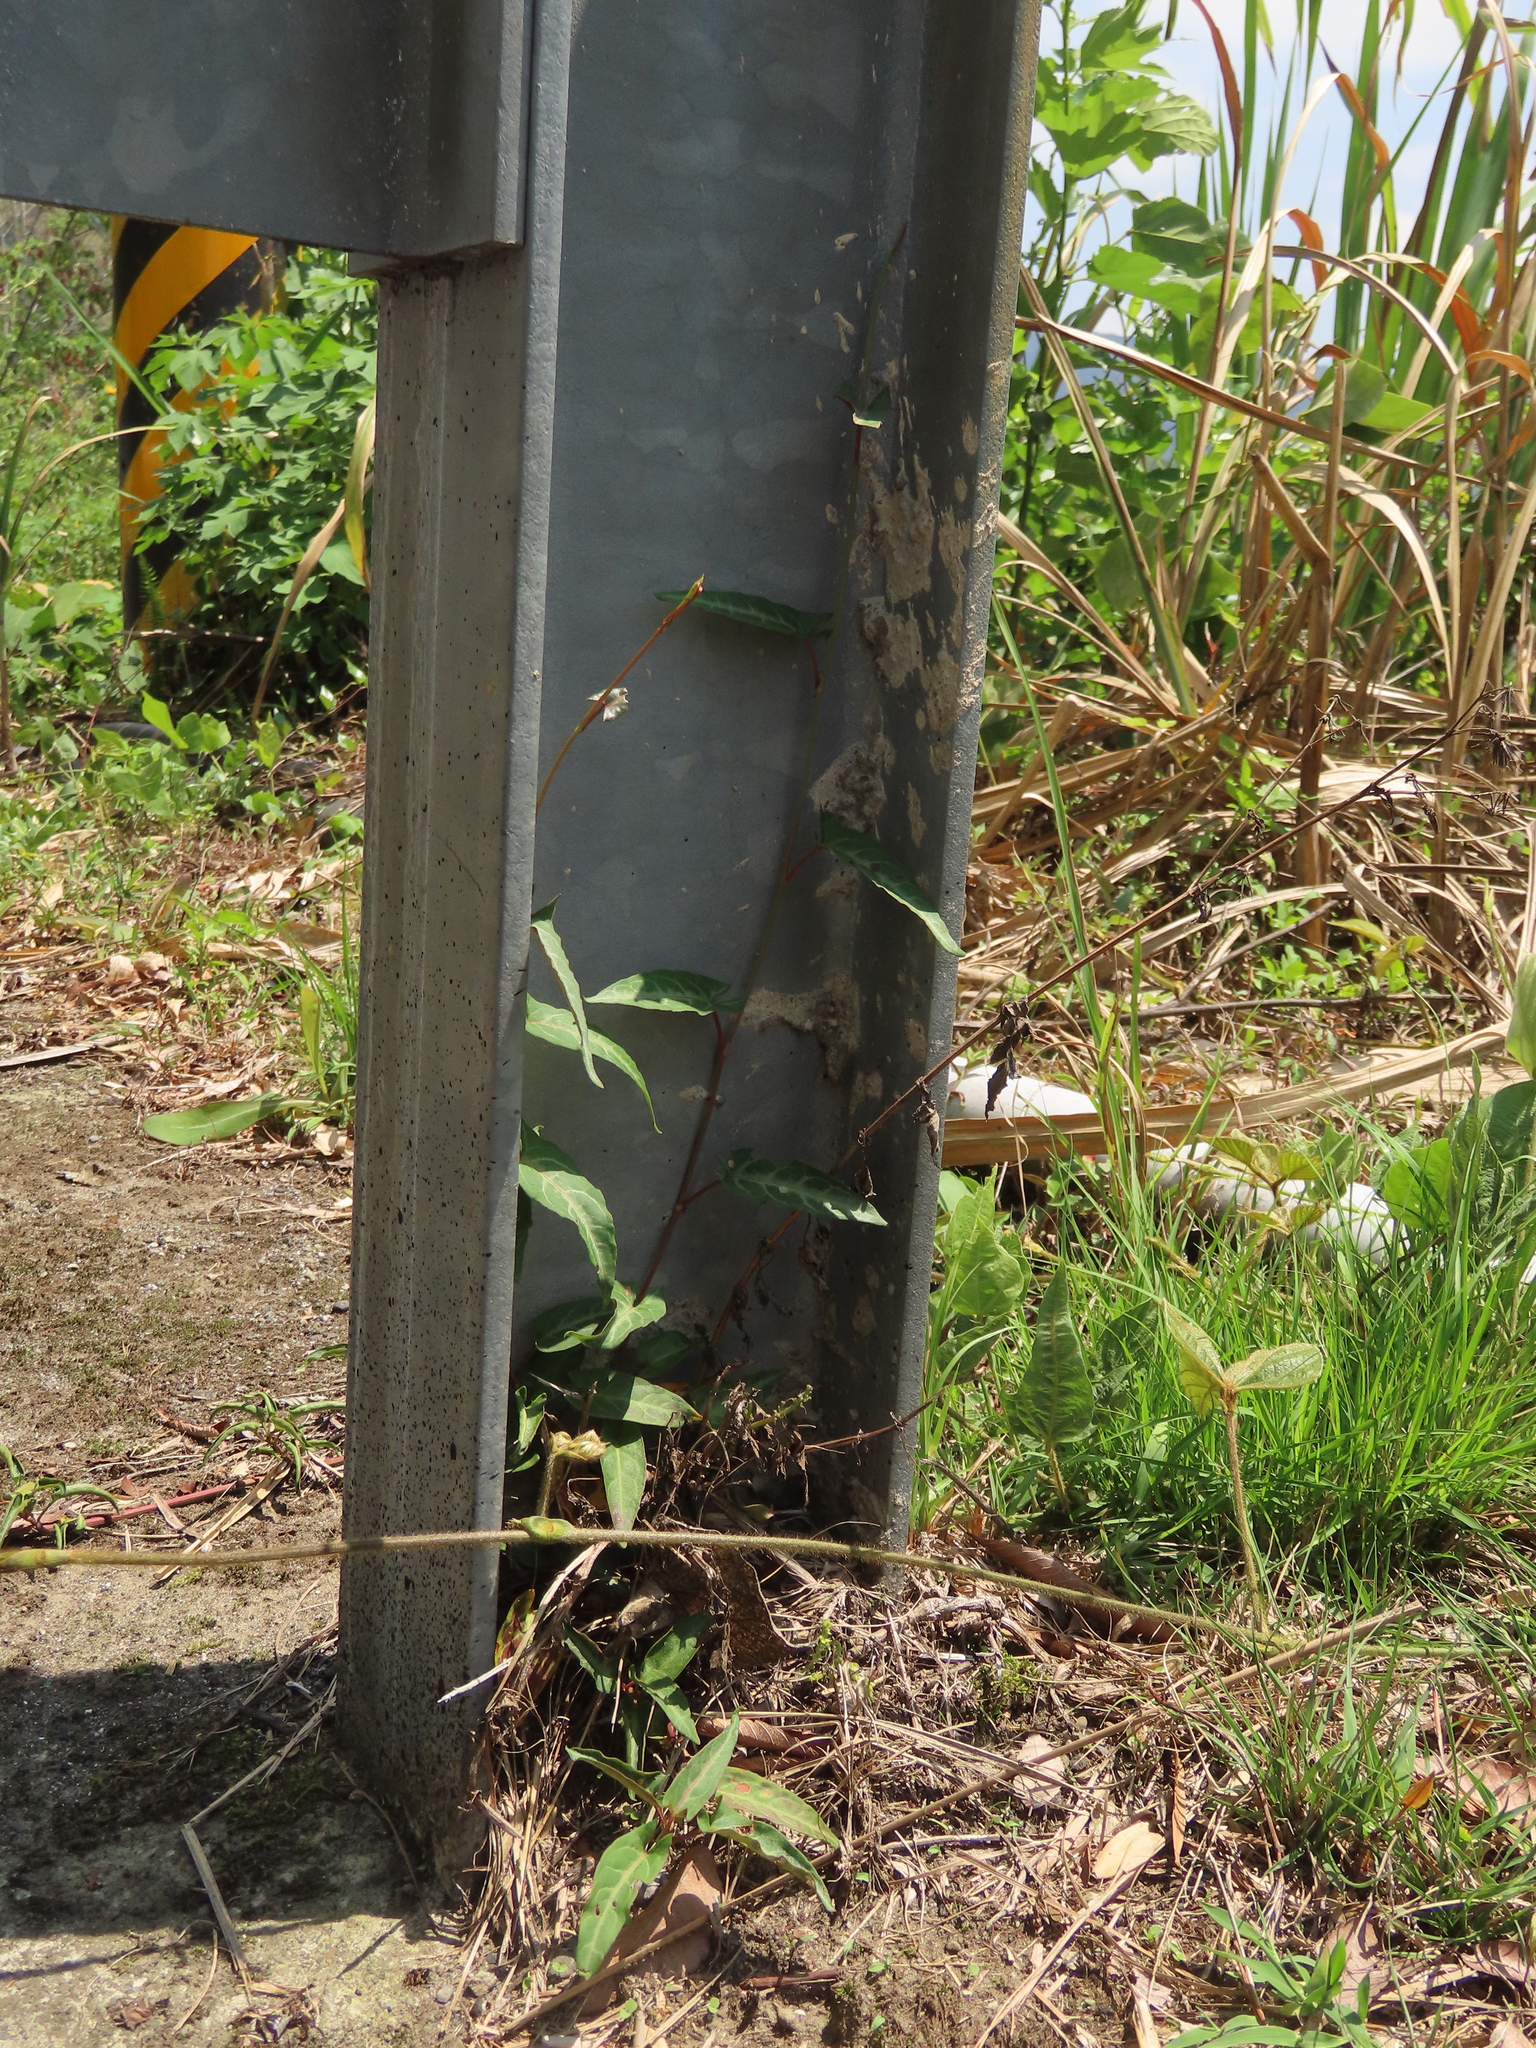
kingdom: Plantae
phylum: Tracheophyta
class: Magnoliopsida
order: Caryophyllales
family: Polygonaceae
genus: Reynoutria
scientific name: Reynoutria multiflora
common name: Chinese fleeceflower
